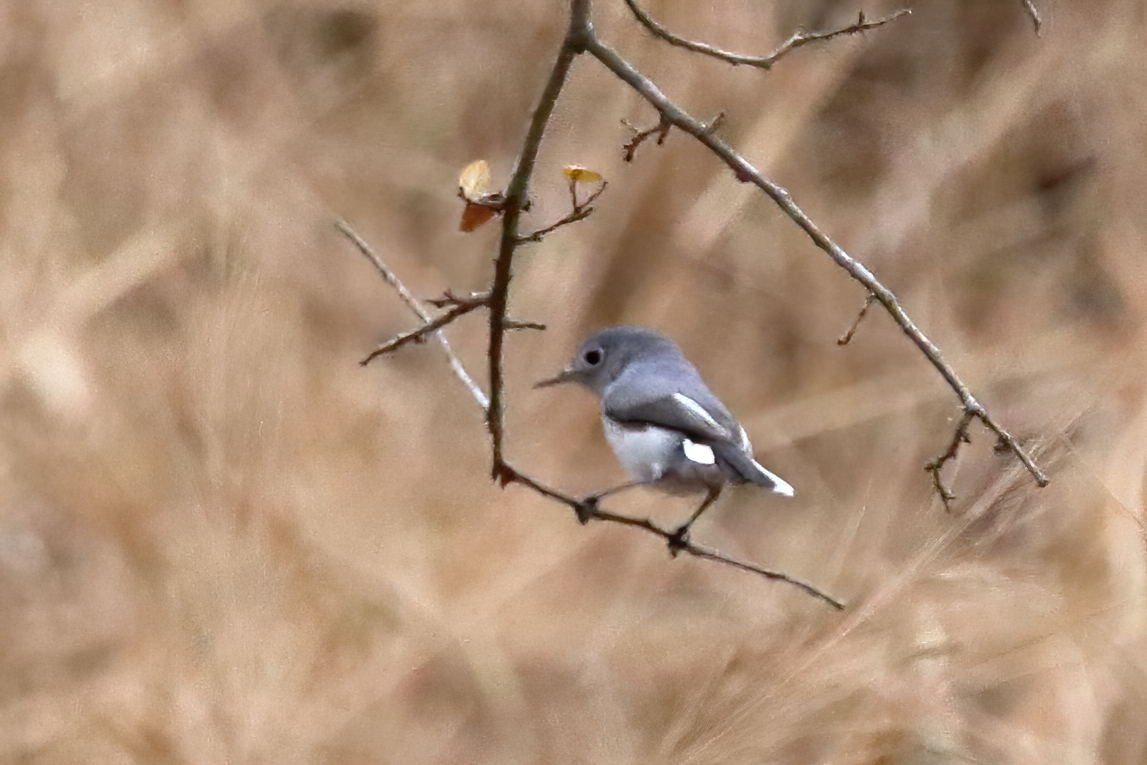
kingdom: Animalia
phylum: Chordata
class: Aves
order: Passeriformes
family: Polioptilidae
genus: Polioptila
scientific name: Polioptila caerulea
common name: Blue-gray gnatcatcher
